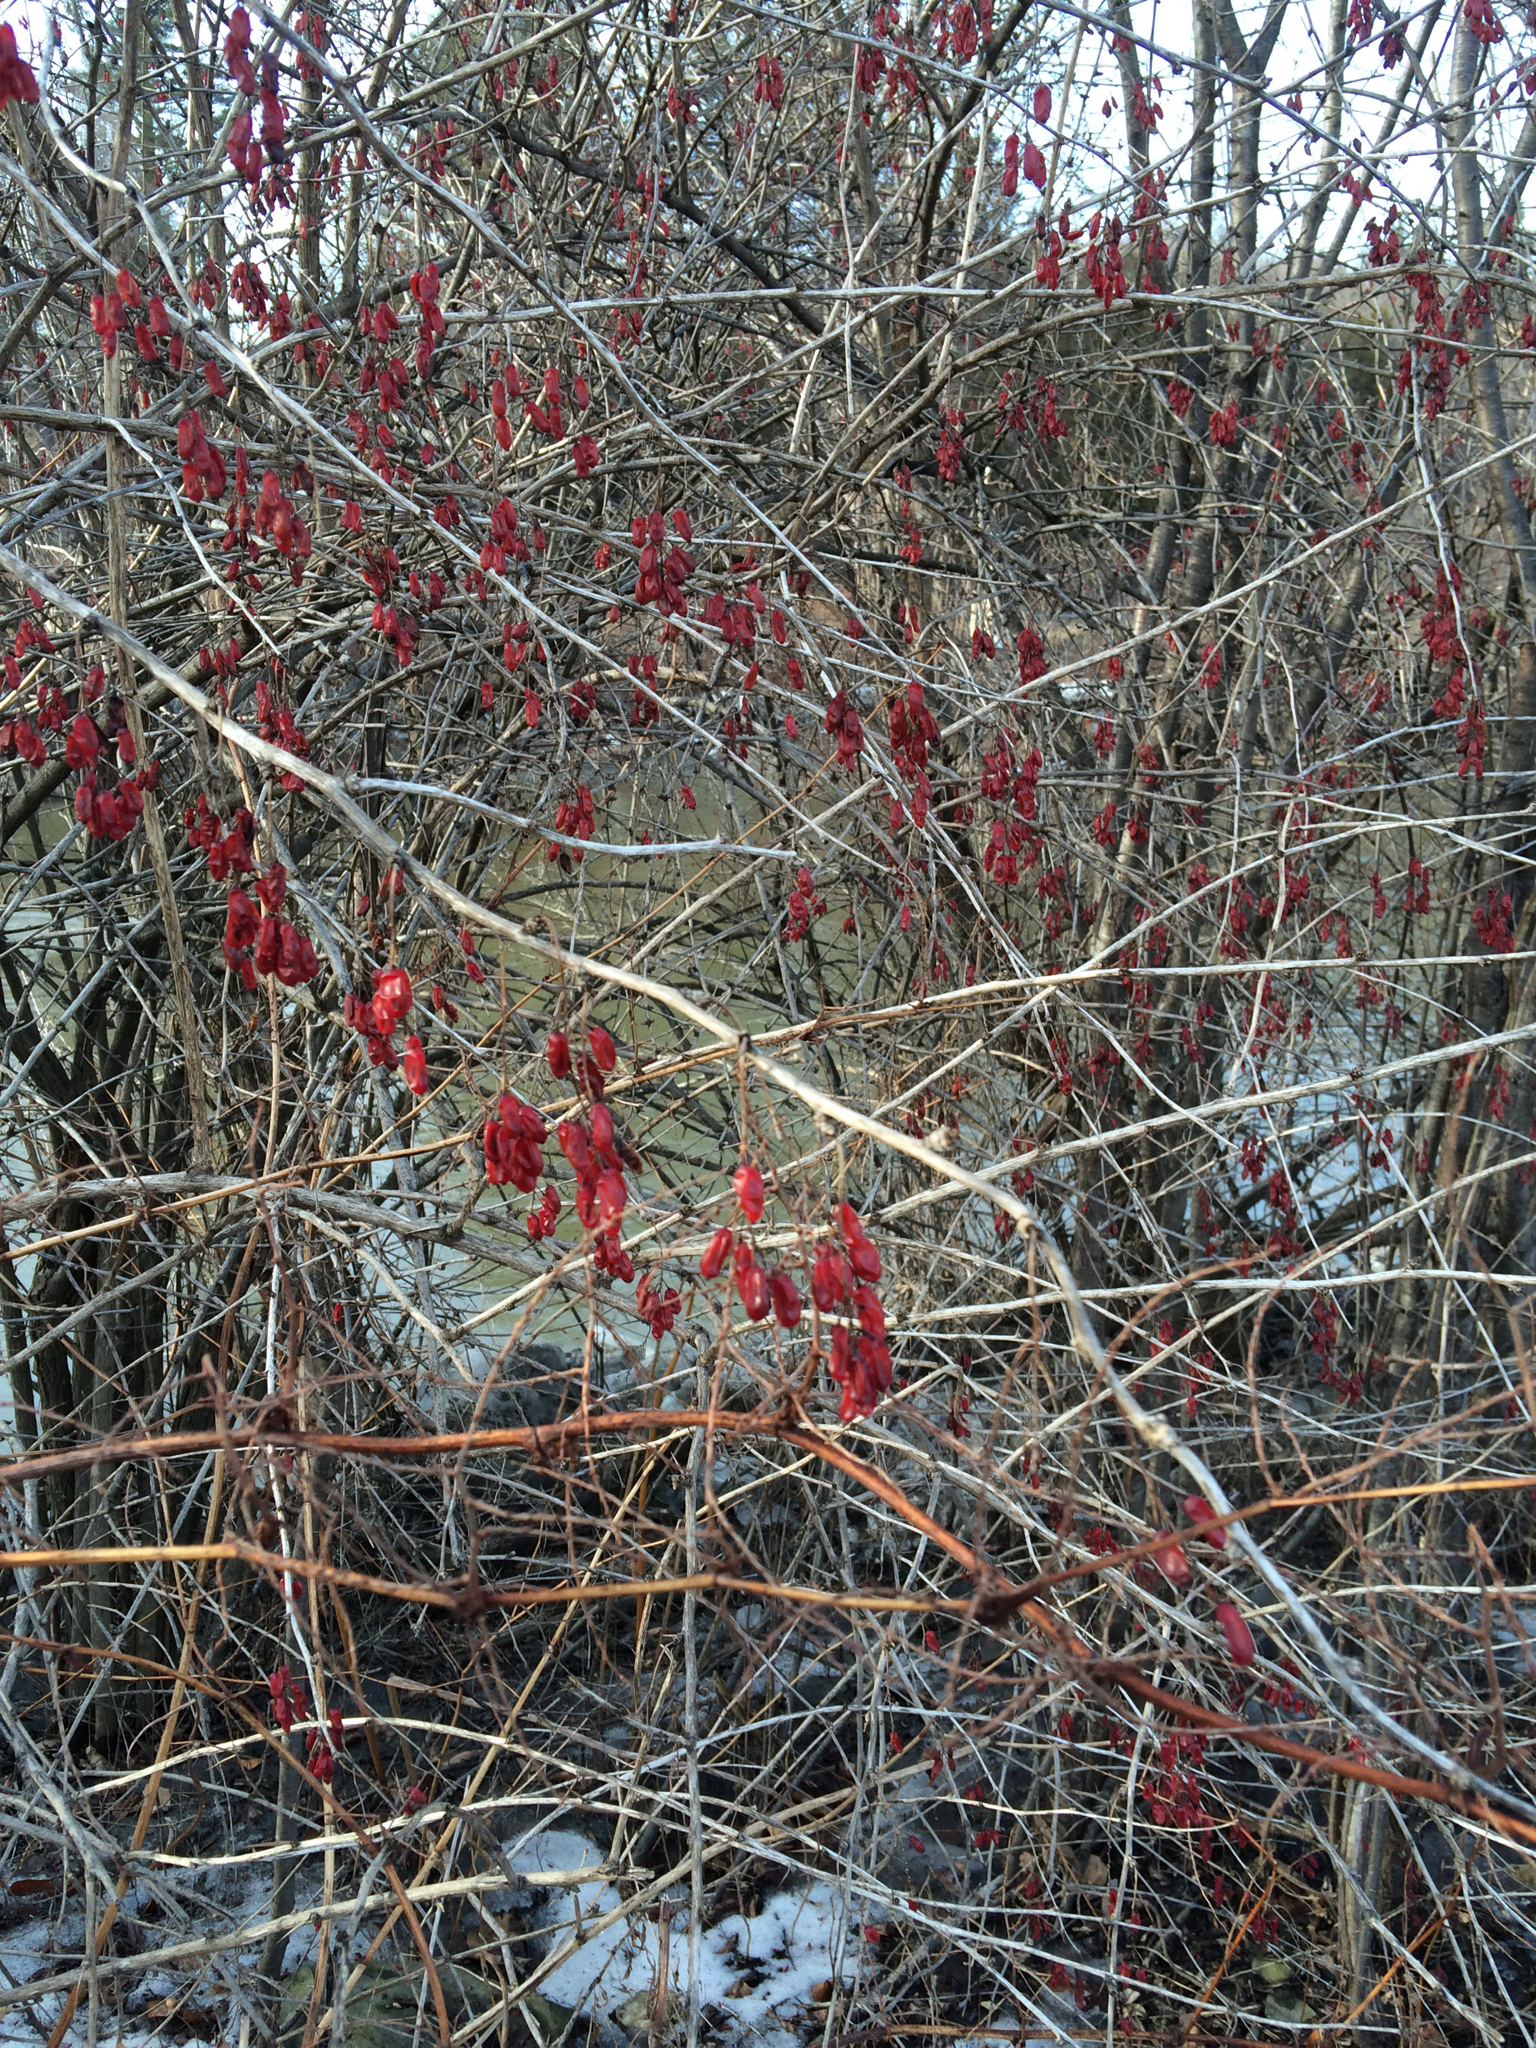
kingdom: Plantae
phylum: Tracheophyta
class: Magnoliopsida
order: Ranunculales
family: Berberidaceae
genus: Berberis
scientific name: Berberis vulgaris
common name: Barberry
